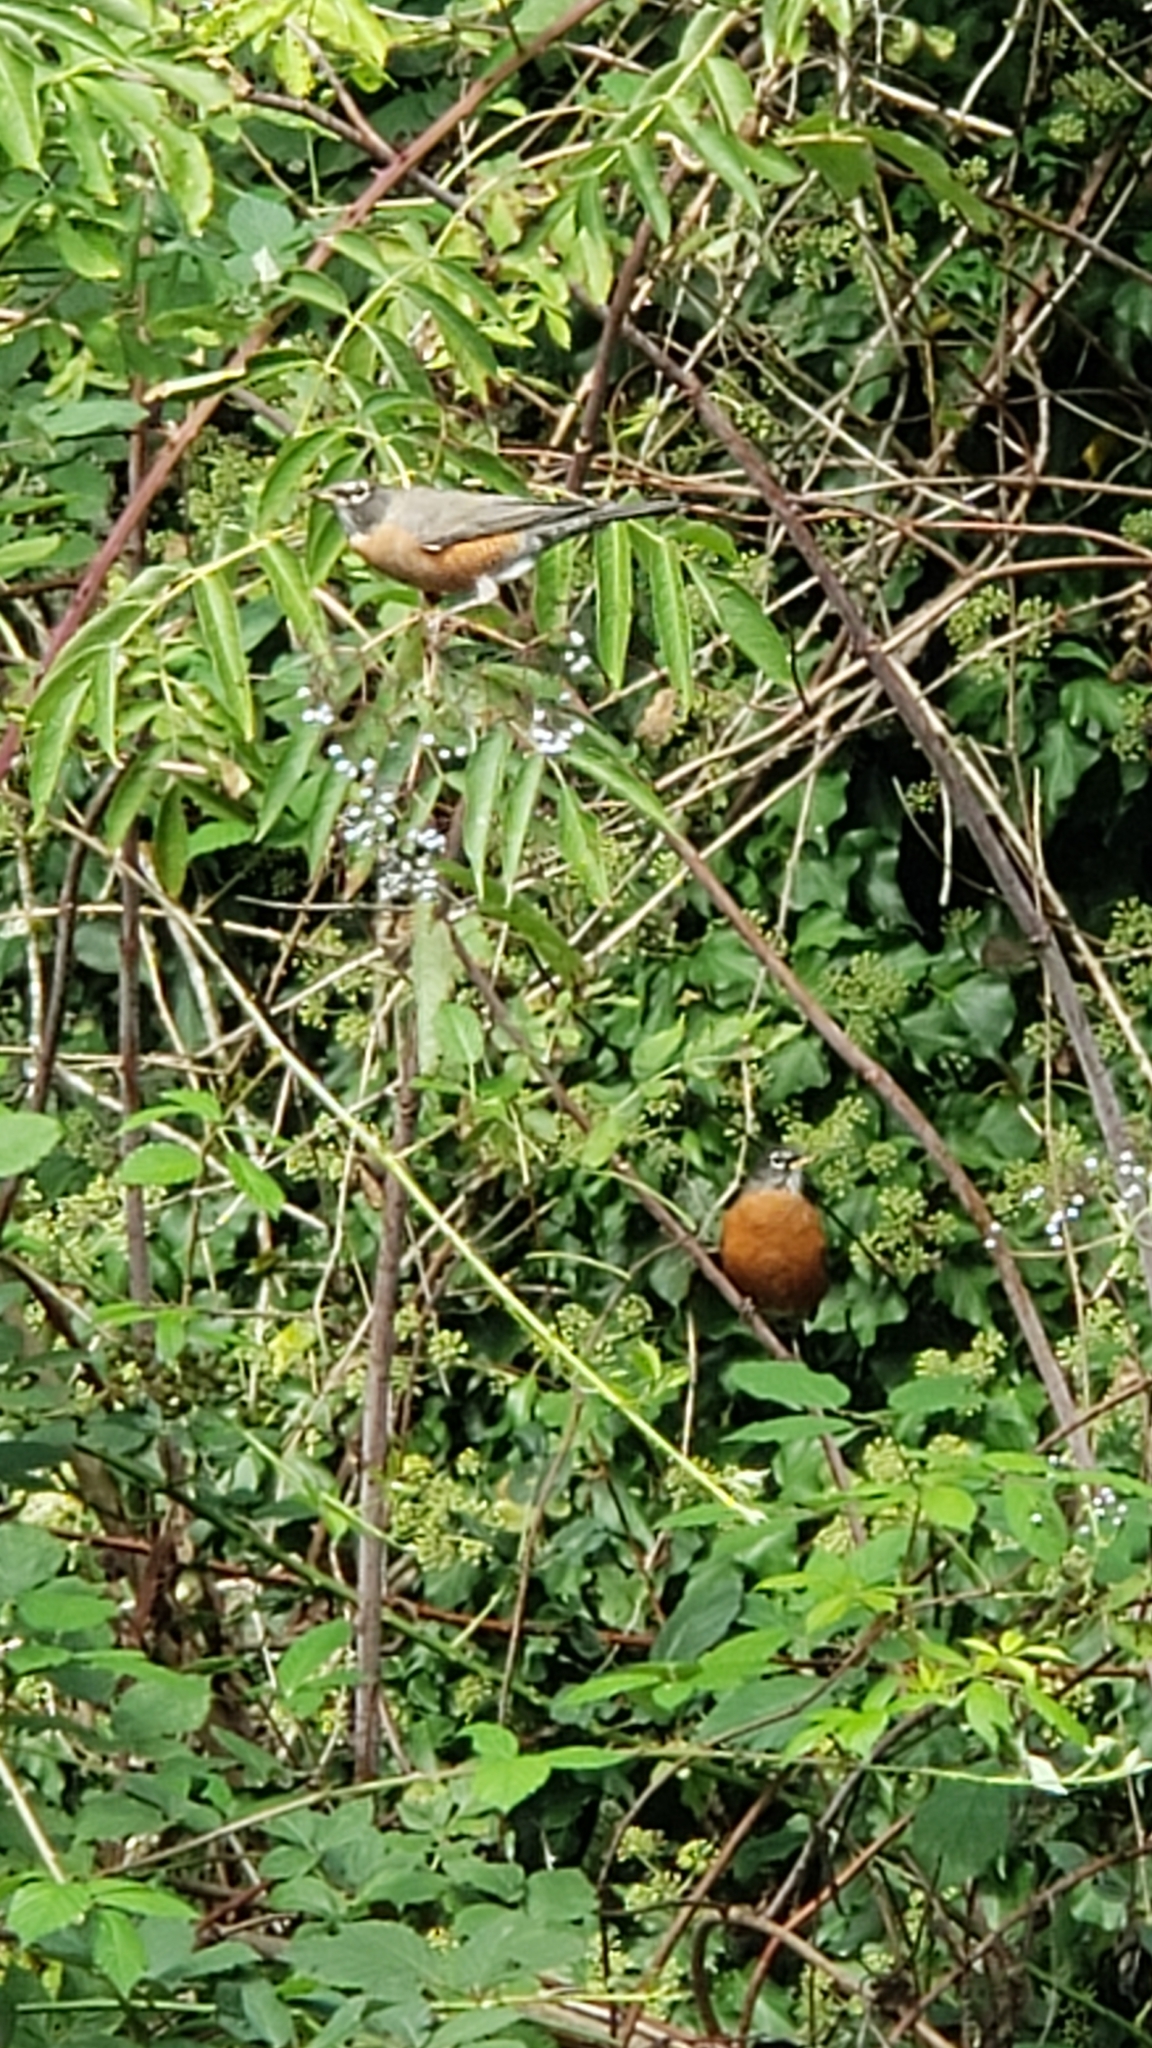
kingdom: Animalia
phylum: Chordata
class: Aves
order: Passeriformes
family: Turdidae
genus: Turdus
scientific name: Turdus migratorius
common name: American robin
